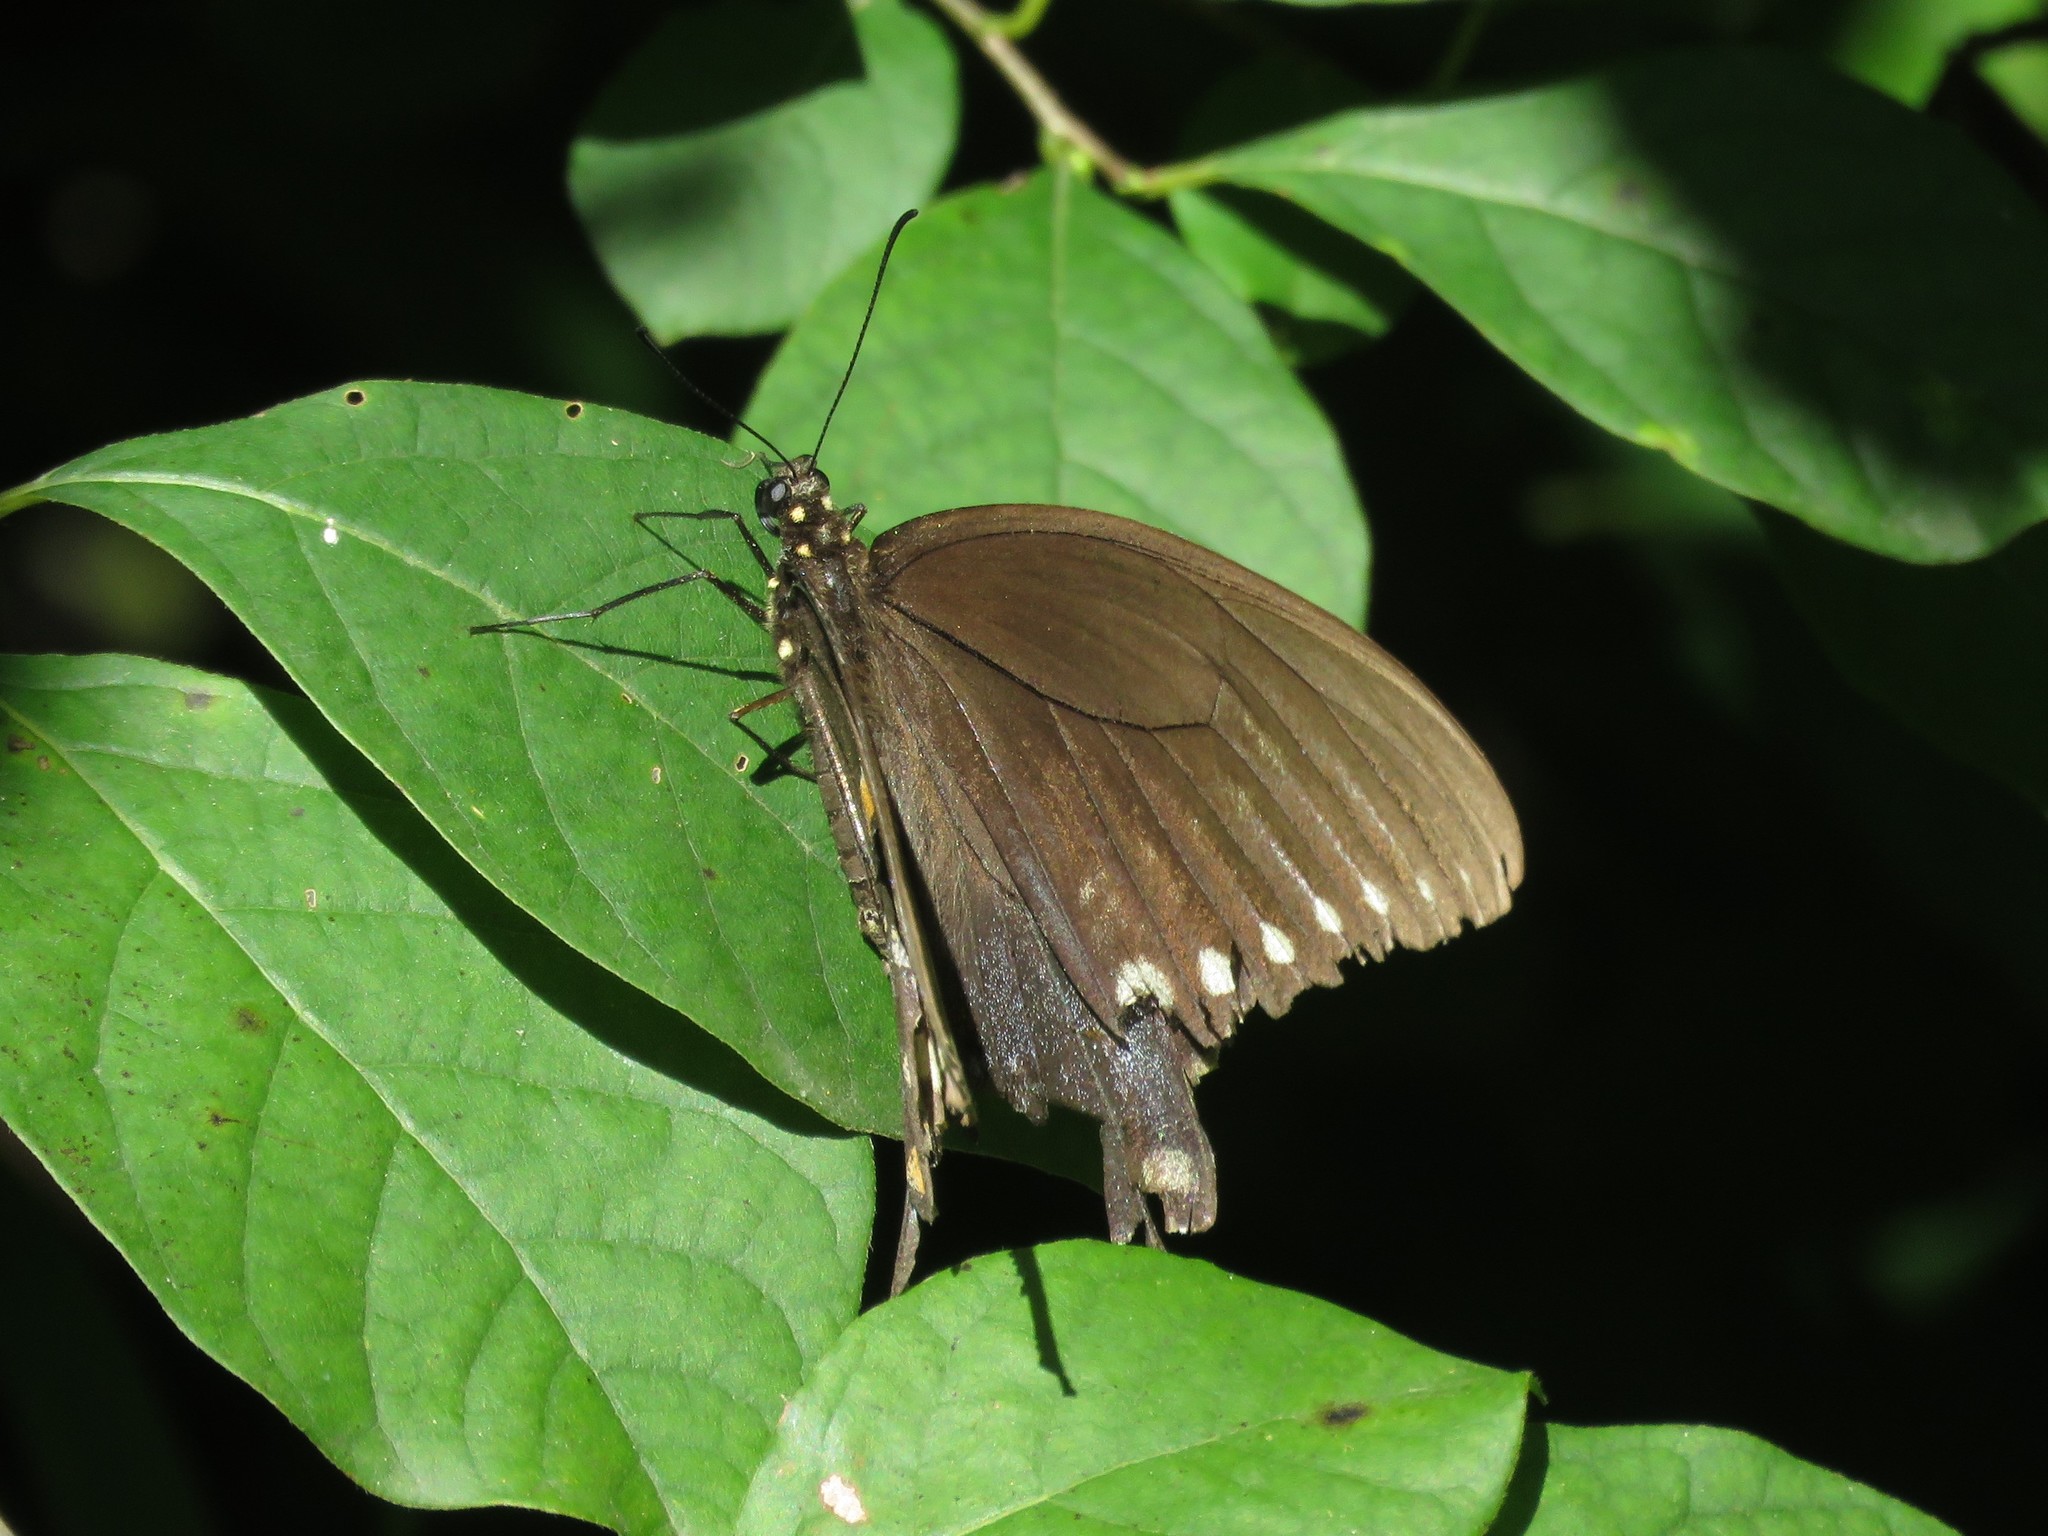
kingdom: Animalia
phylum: Arthropoda
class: Insecta
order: Lepidoptera
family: Papilionidae
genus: Papilio
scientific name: Papilio troilus
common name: Spicebush swallowtail
